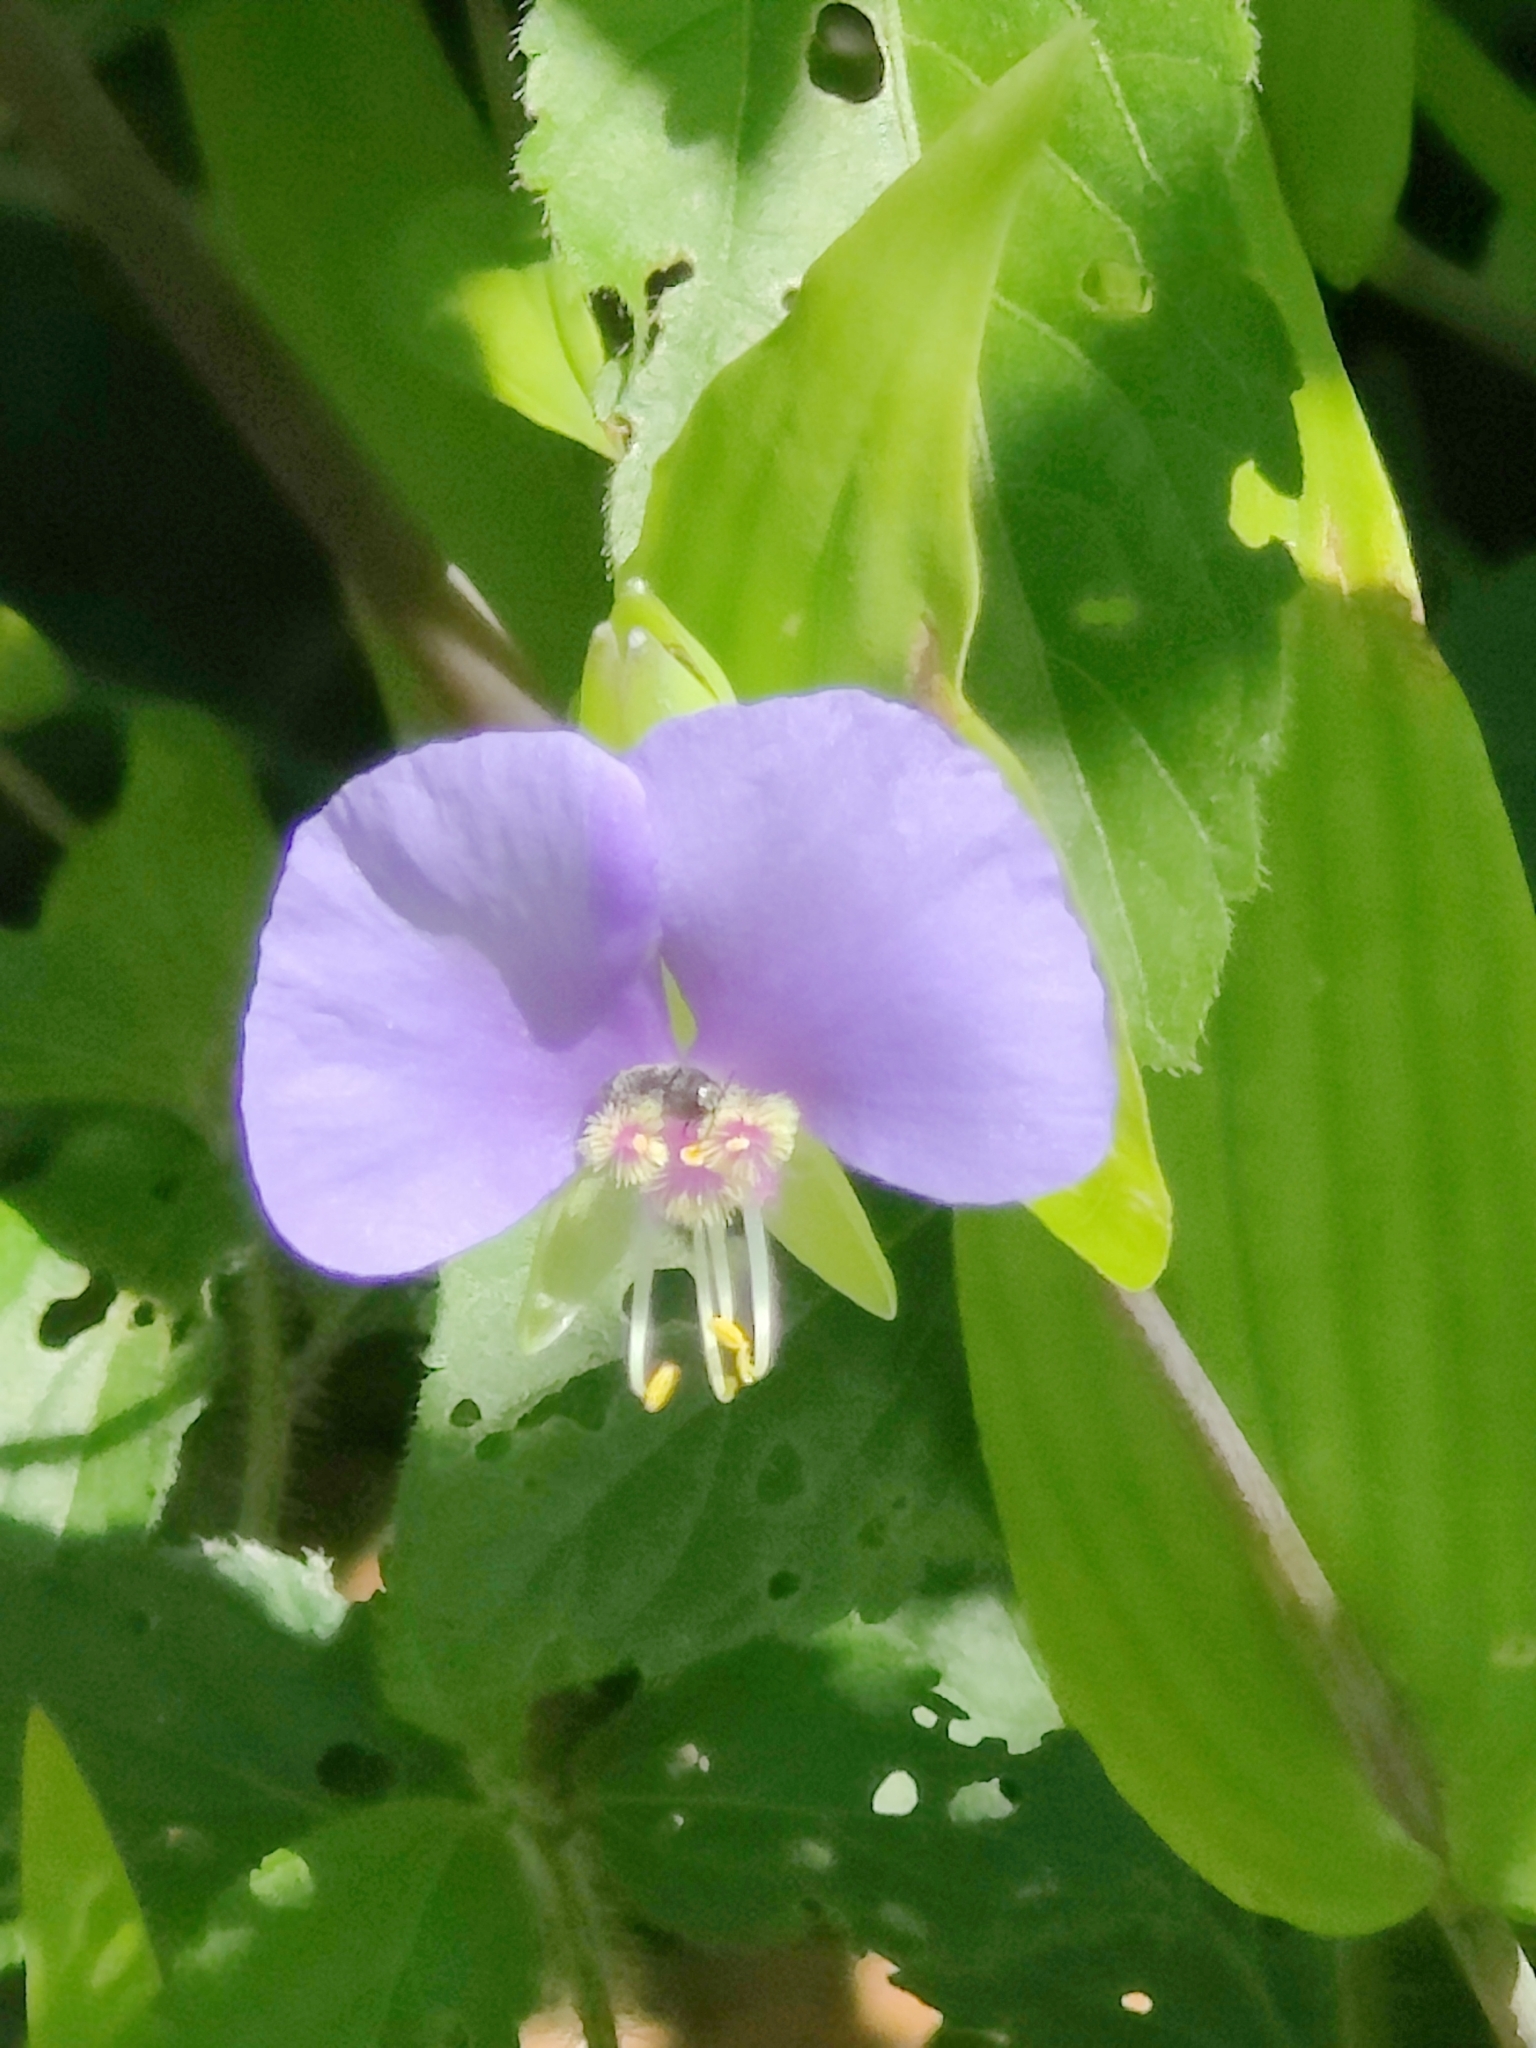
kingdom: Plantae
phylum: Tracheophyta
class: Liliopsida
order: Commelinales
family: Commelinaceae
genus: Tinantia
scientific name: Tinantia anomala
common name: False dayflower
